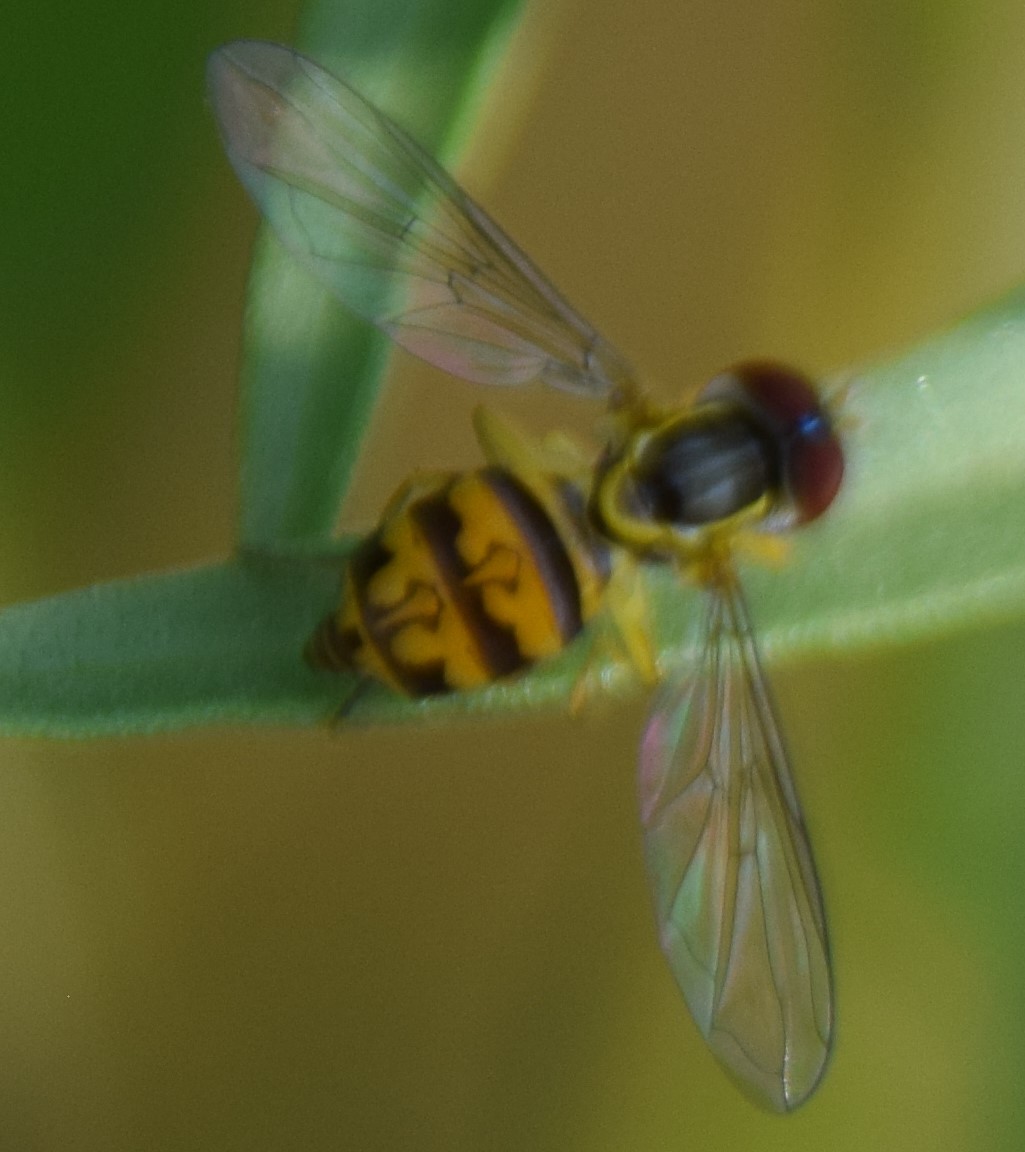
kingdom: Animalia
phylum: Arthropoda
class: Insecta
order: Diptera
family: Syrphidae
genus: Toxomerus
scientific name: Toxomerus geminatus
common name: Eastern calligrapher
